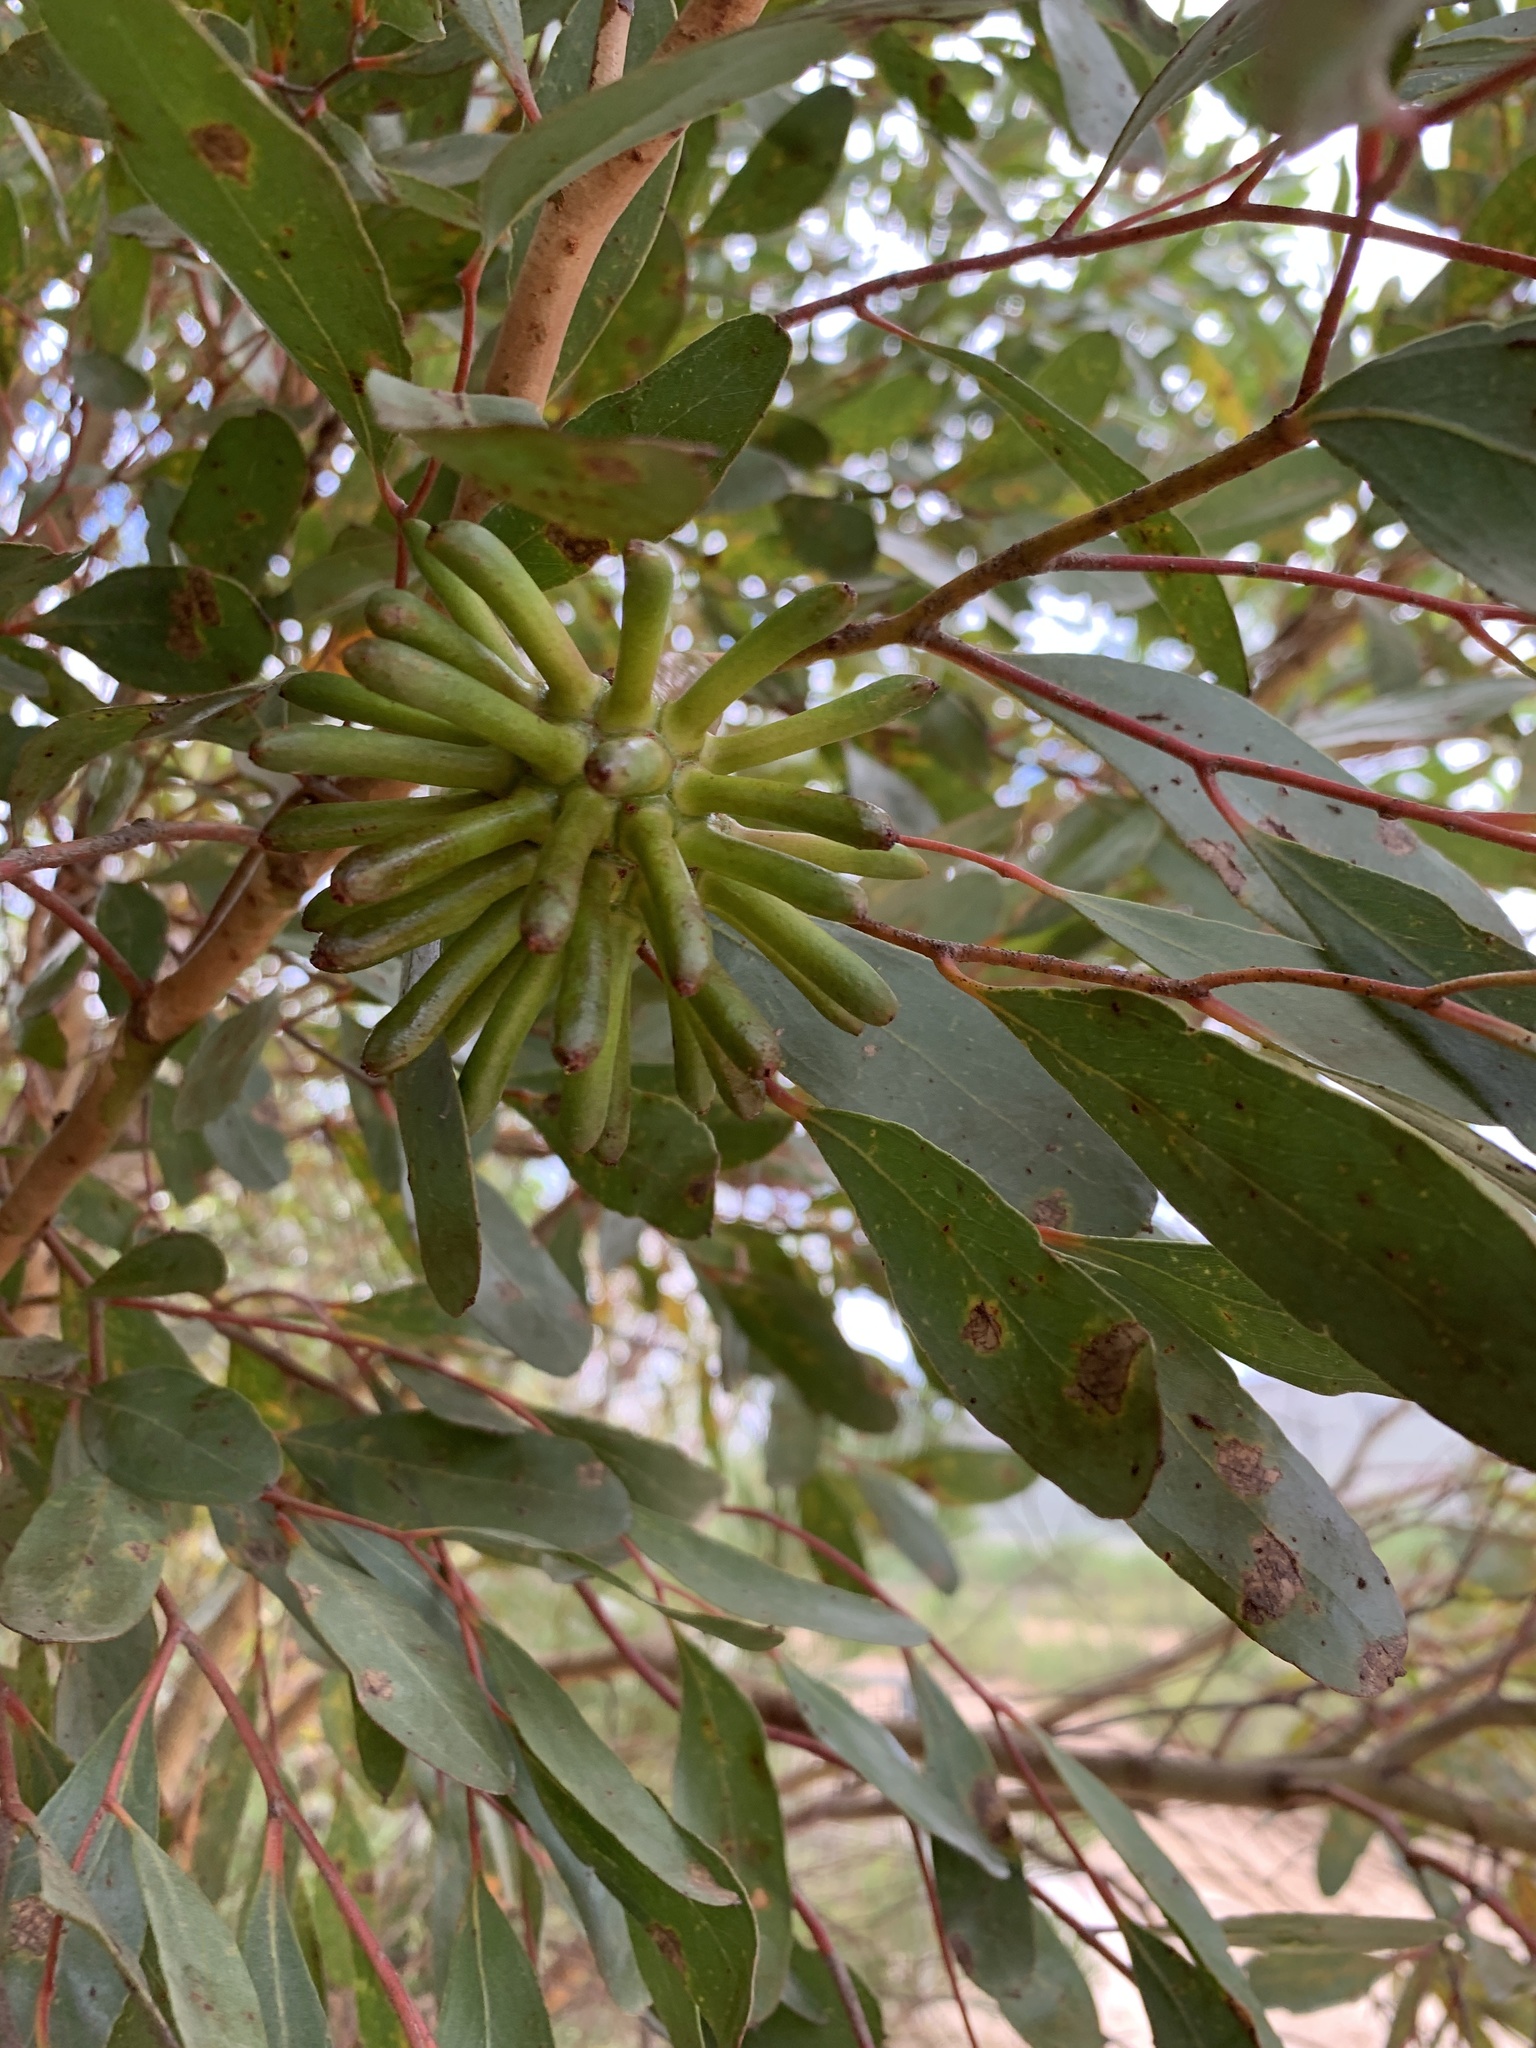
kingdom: Plantae
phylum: Tracheophyta
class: Magnoliopsida
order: Myrtales
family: Myrtaceae
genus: Eucalyptus
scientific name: Eucalyptus conferruminata
